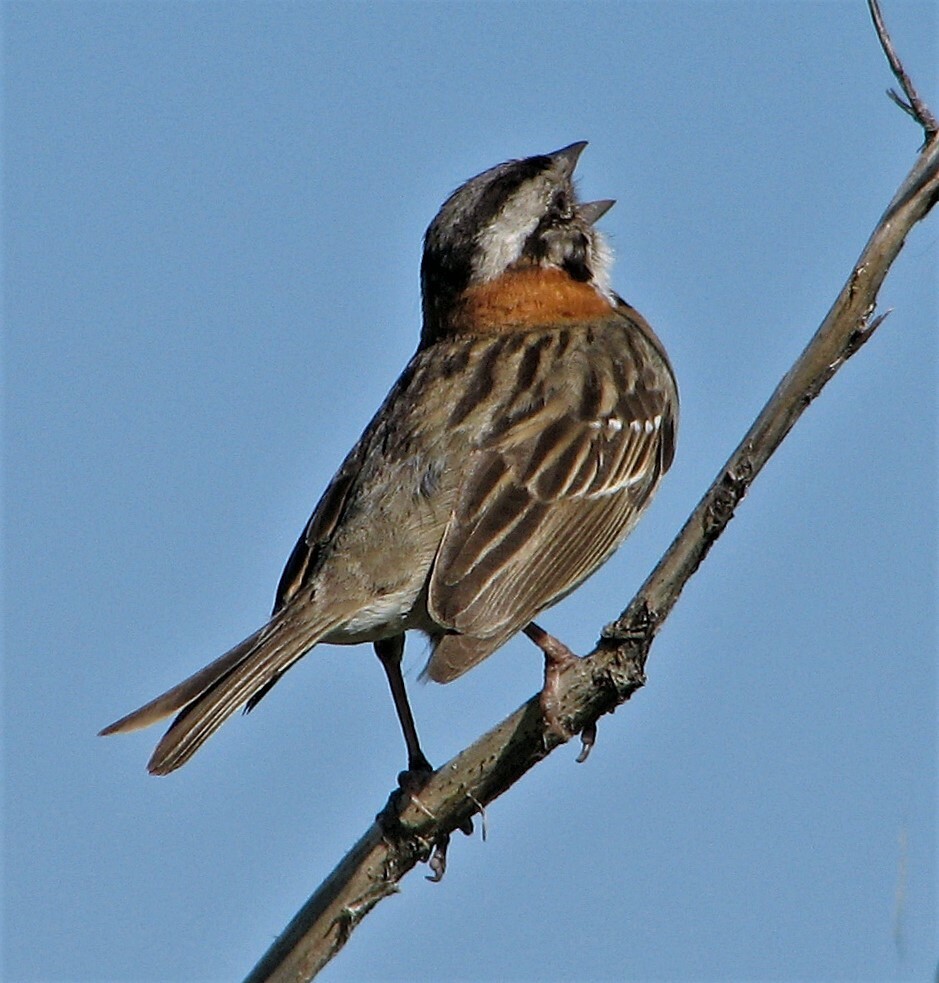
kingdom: Animalia
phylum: Chordata
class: Aves
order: Passeriformes
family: Passerellidae
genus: Zonotrichia
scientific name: Zonotrichia capensis
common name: Rufous-collared sparrow
